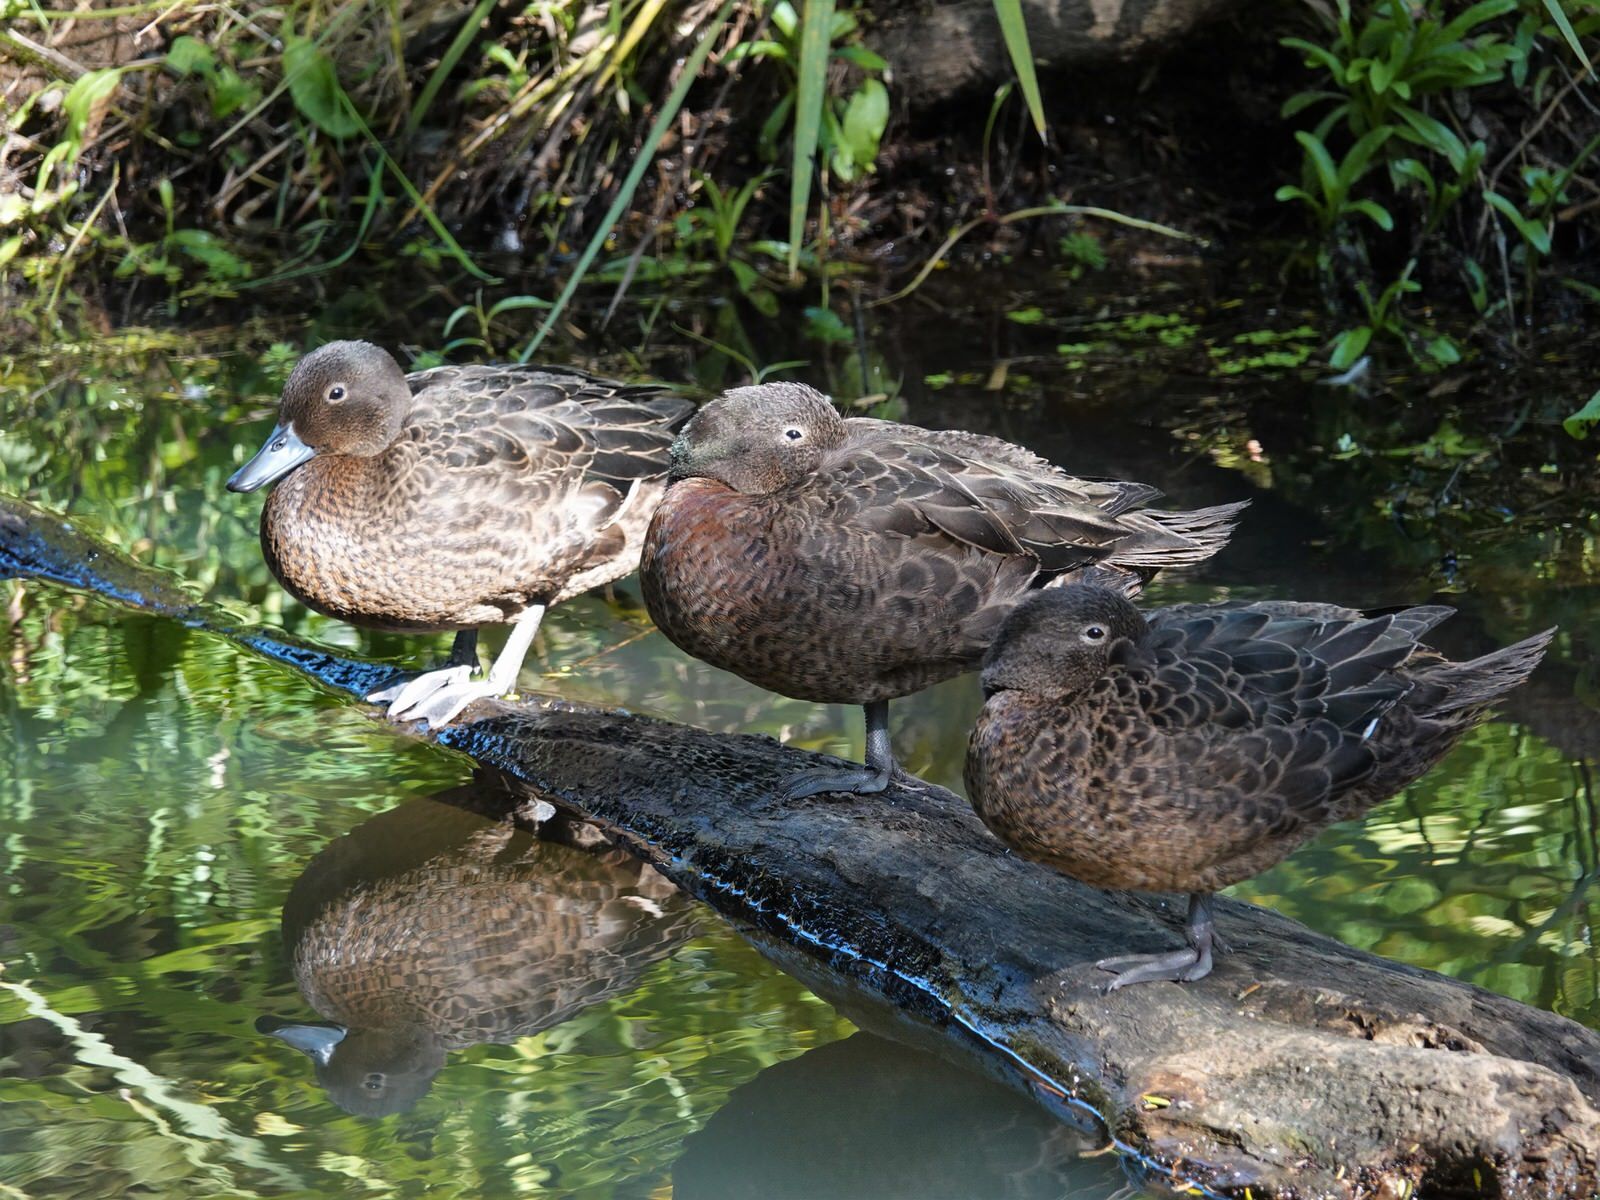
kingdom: Animalia
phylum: Chordata
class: Aves
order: Anseriformes
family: Anatidae
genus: Anas
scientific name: Anas chlorotis
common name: Brown teal
